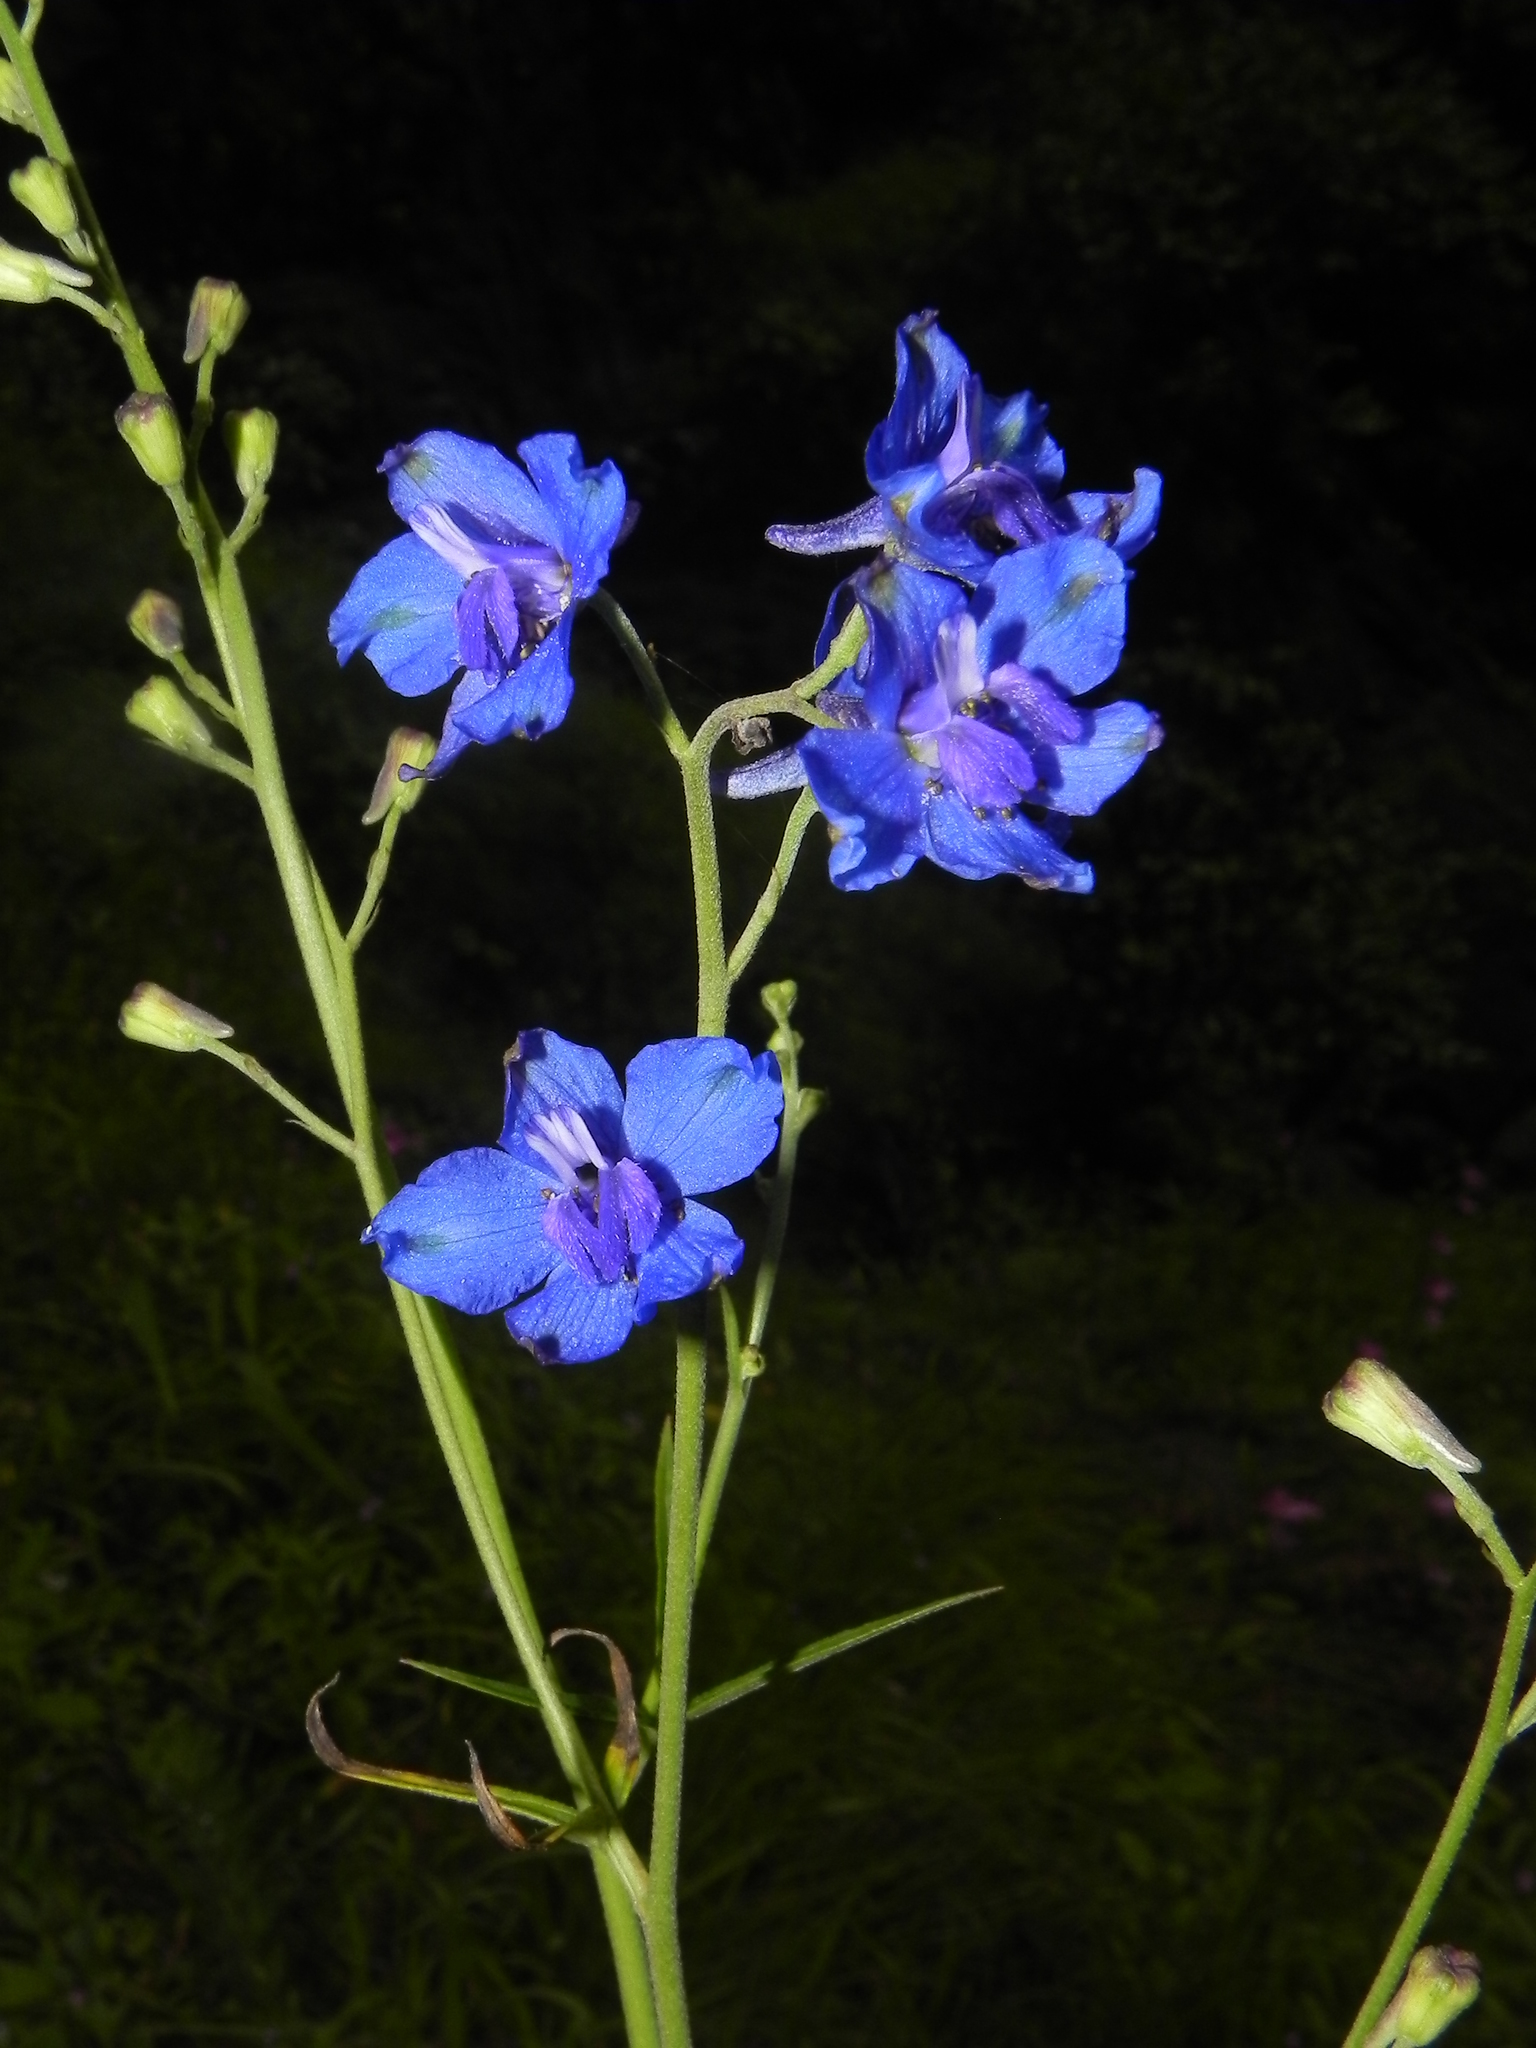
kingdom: Plantae
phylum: Tracheophyta
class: Magnoliopsida
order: Ranunculales
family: Ranunculaceae
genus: Delphinium
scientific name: Delphinium malabaricum
